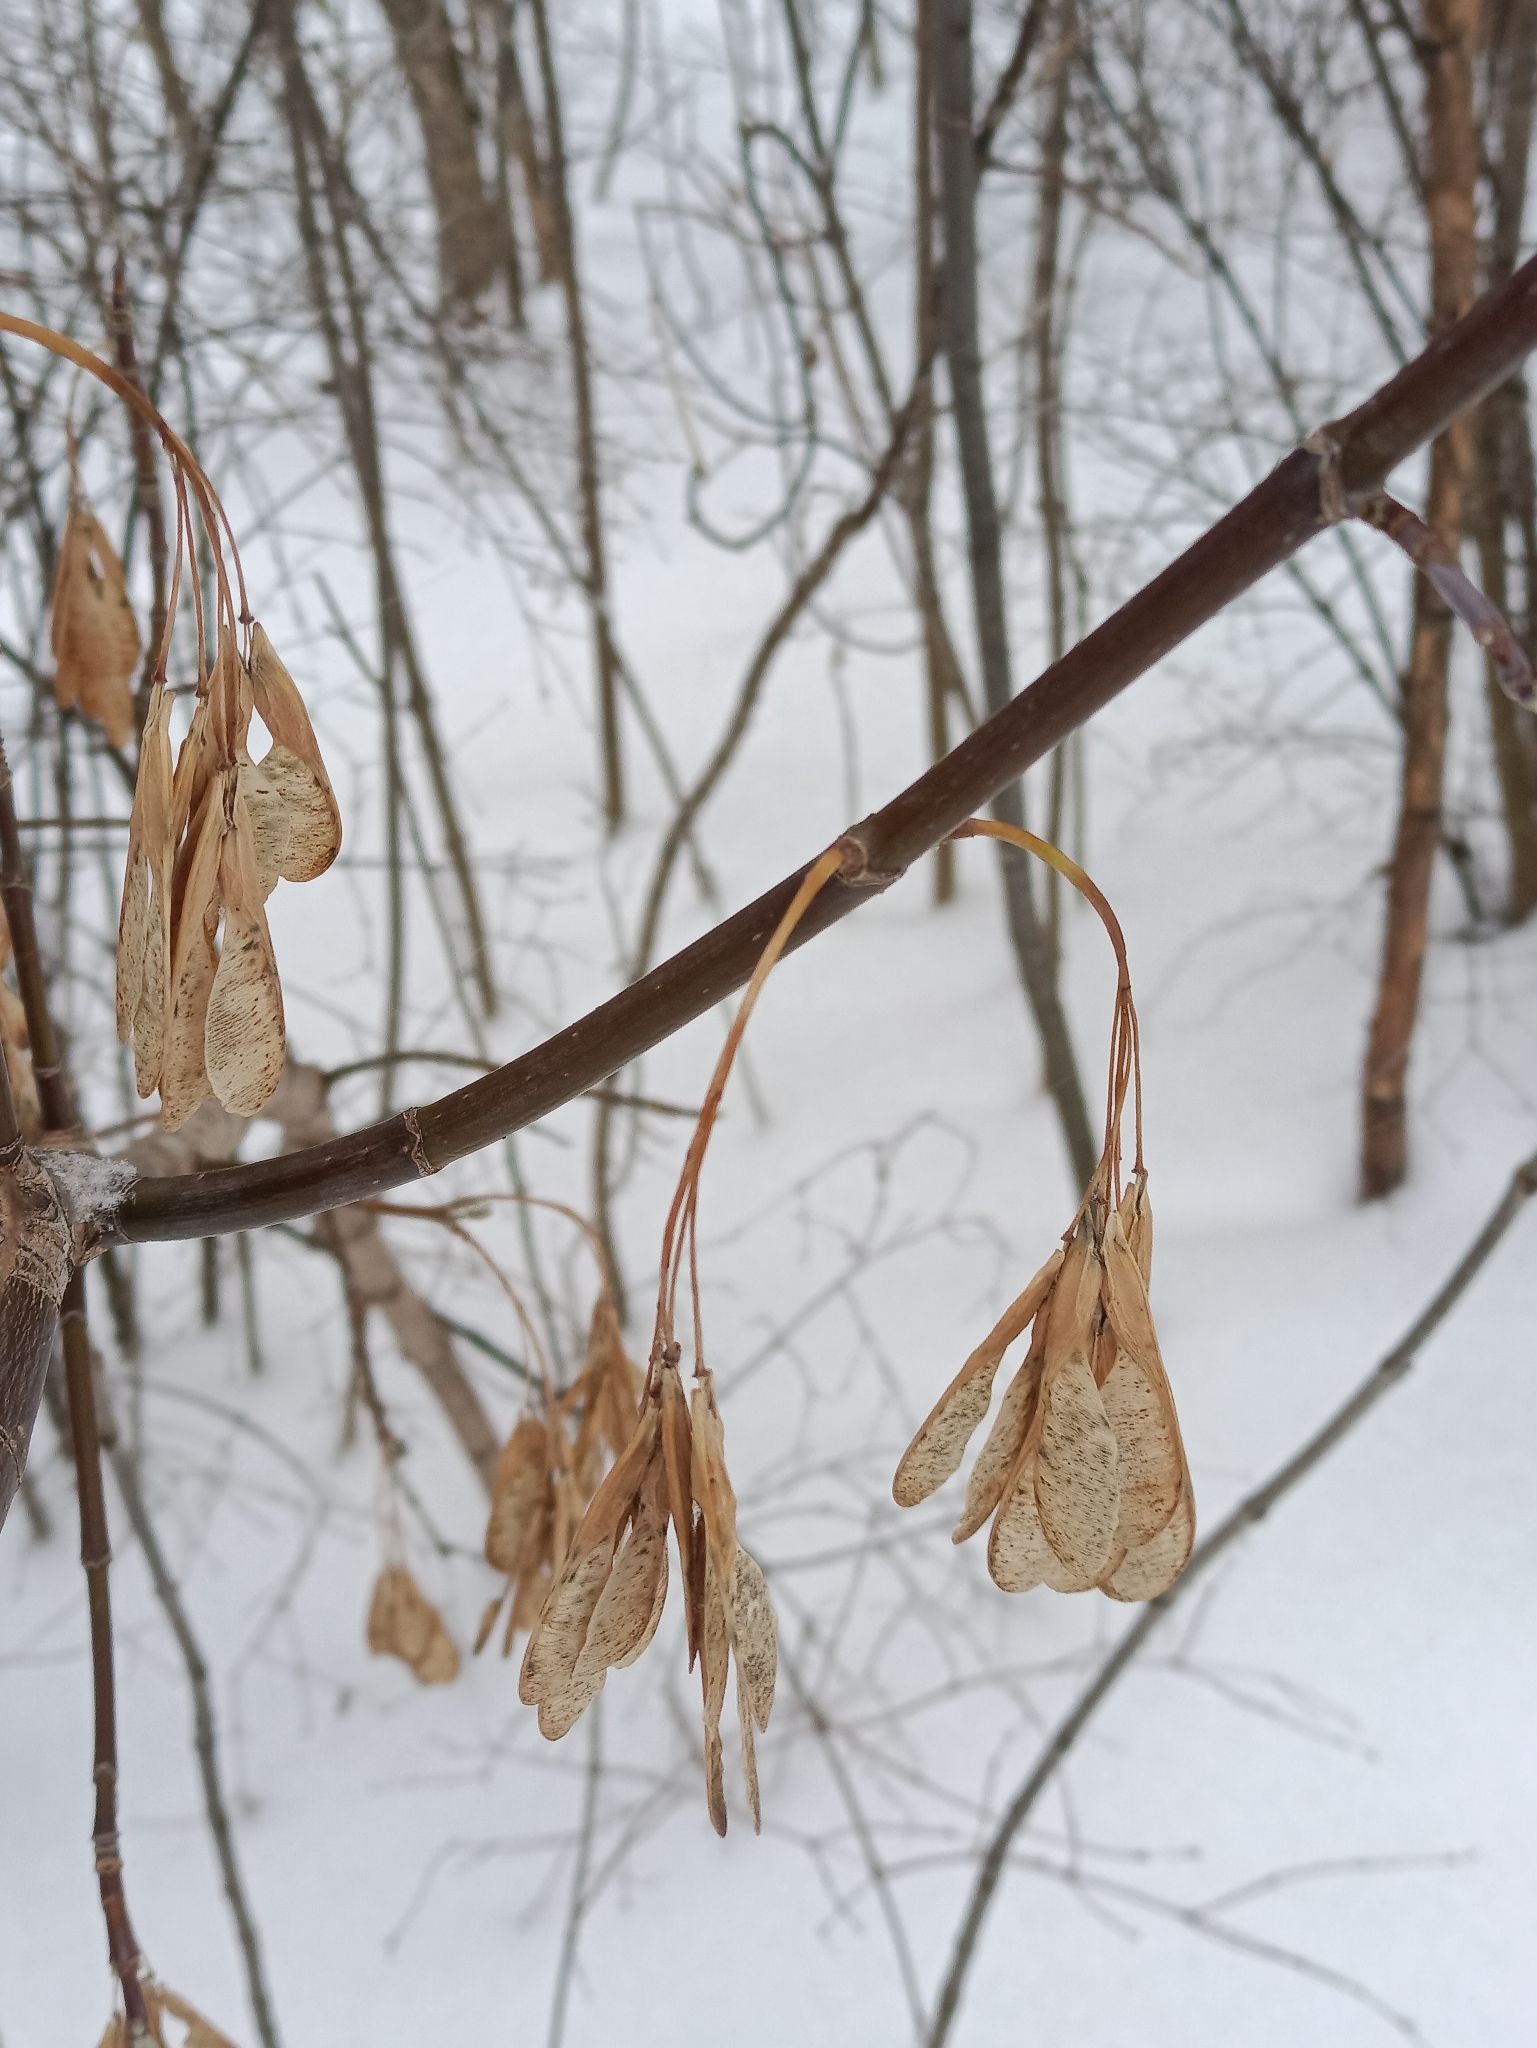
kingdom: Plantae
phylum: Tracheophyta
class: Magnoliopsida
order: Sapindales
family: Sapindaceae
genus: Acer
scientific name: Acer negundo
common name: Ashleaf maple
